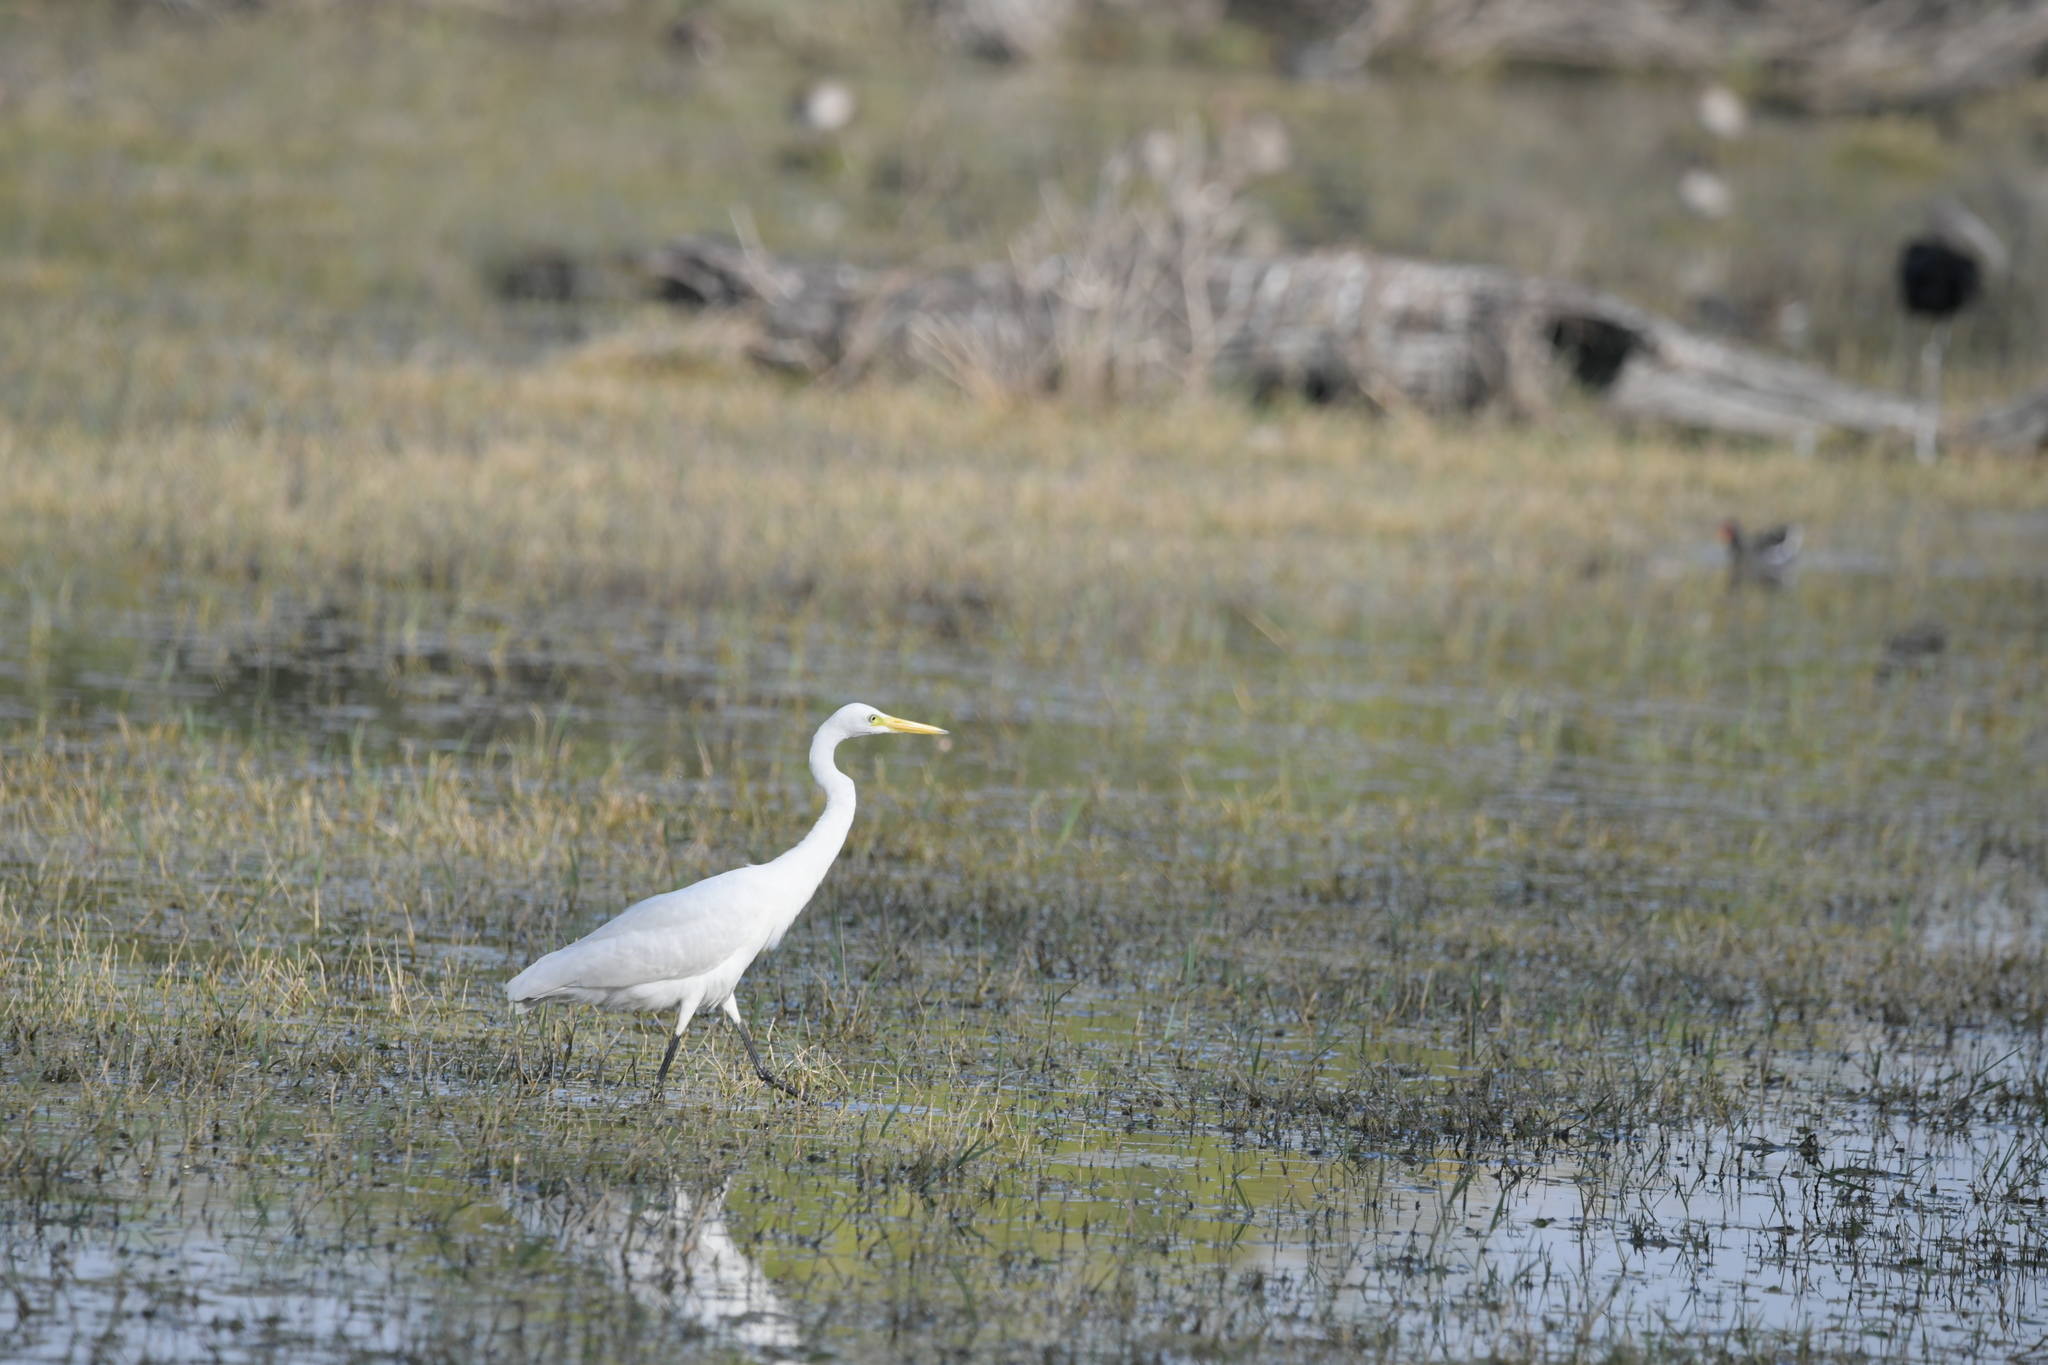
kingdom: Animalia
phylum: Chordata
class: Aves
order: Pelecaniformes
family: Ardeidae
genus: Egretta
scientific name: Egretta intermedia
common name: Intermediate egret
